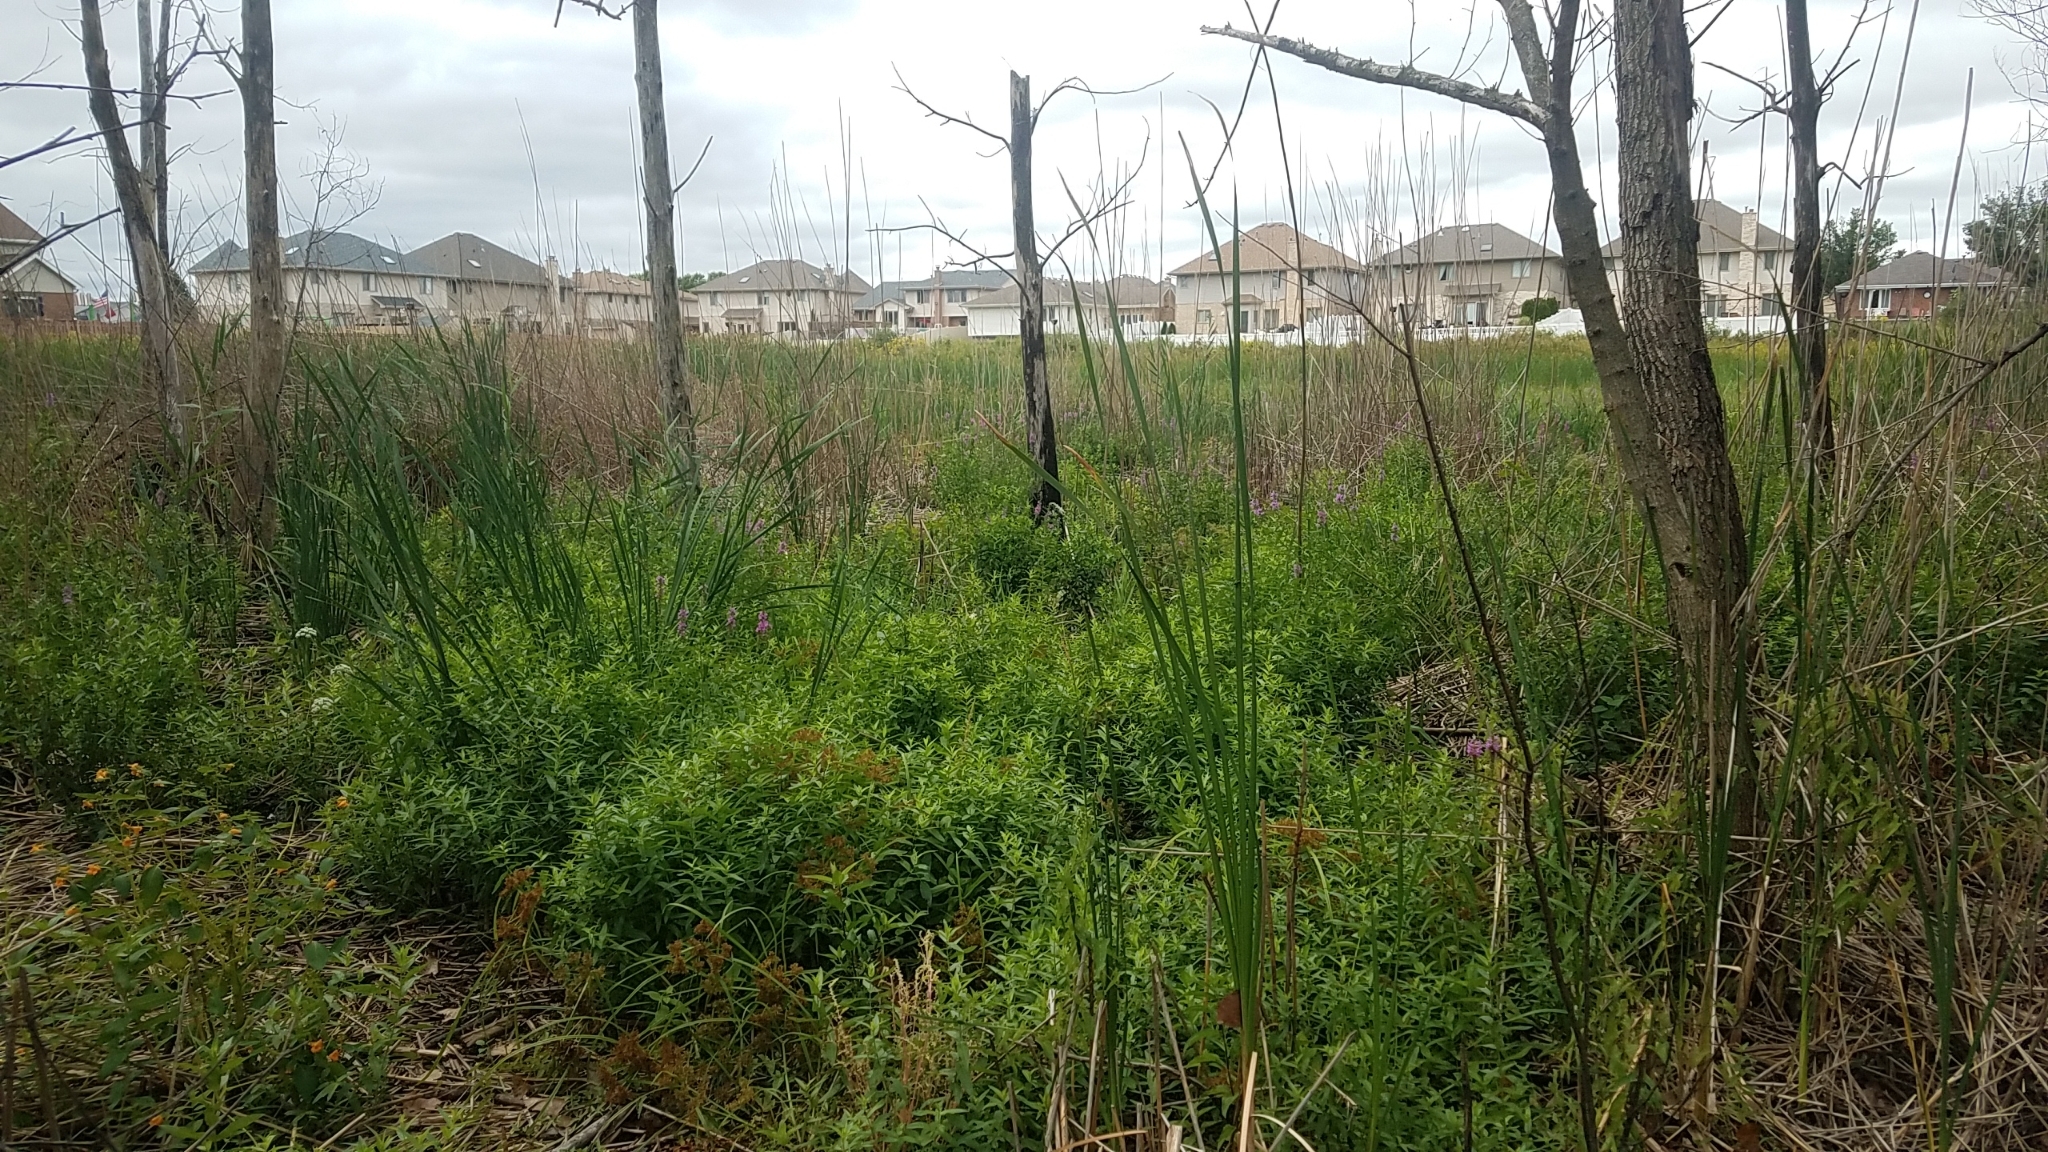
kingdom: Plantae
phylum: Tracheophyta
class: Liliopsida
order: Poales
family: Poaceae
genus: Phragmites
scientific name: Phragmites australis
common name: Common reed
